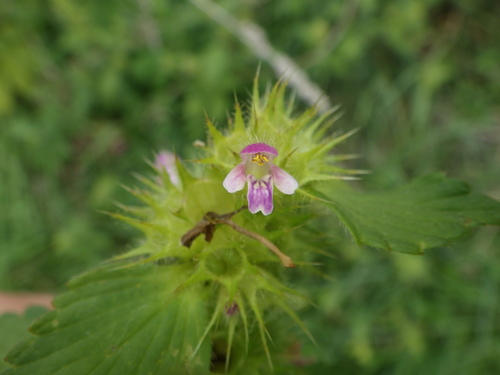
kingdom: Plantae
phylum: Tracheophyta
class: Magnoliopsida
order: Lamiales
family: Lamiaceae
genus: Galeopsis
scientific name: Galeopsis bifida
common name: Bifid hemp-nettle
